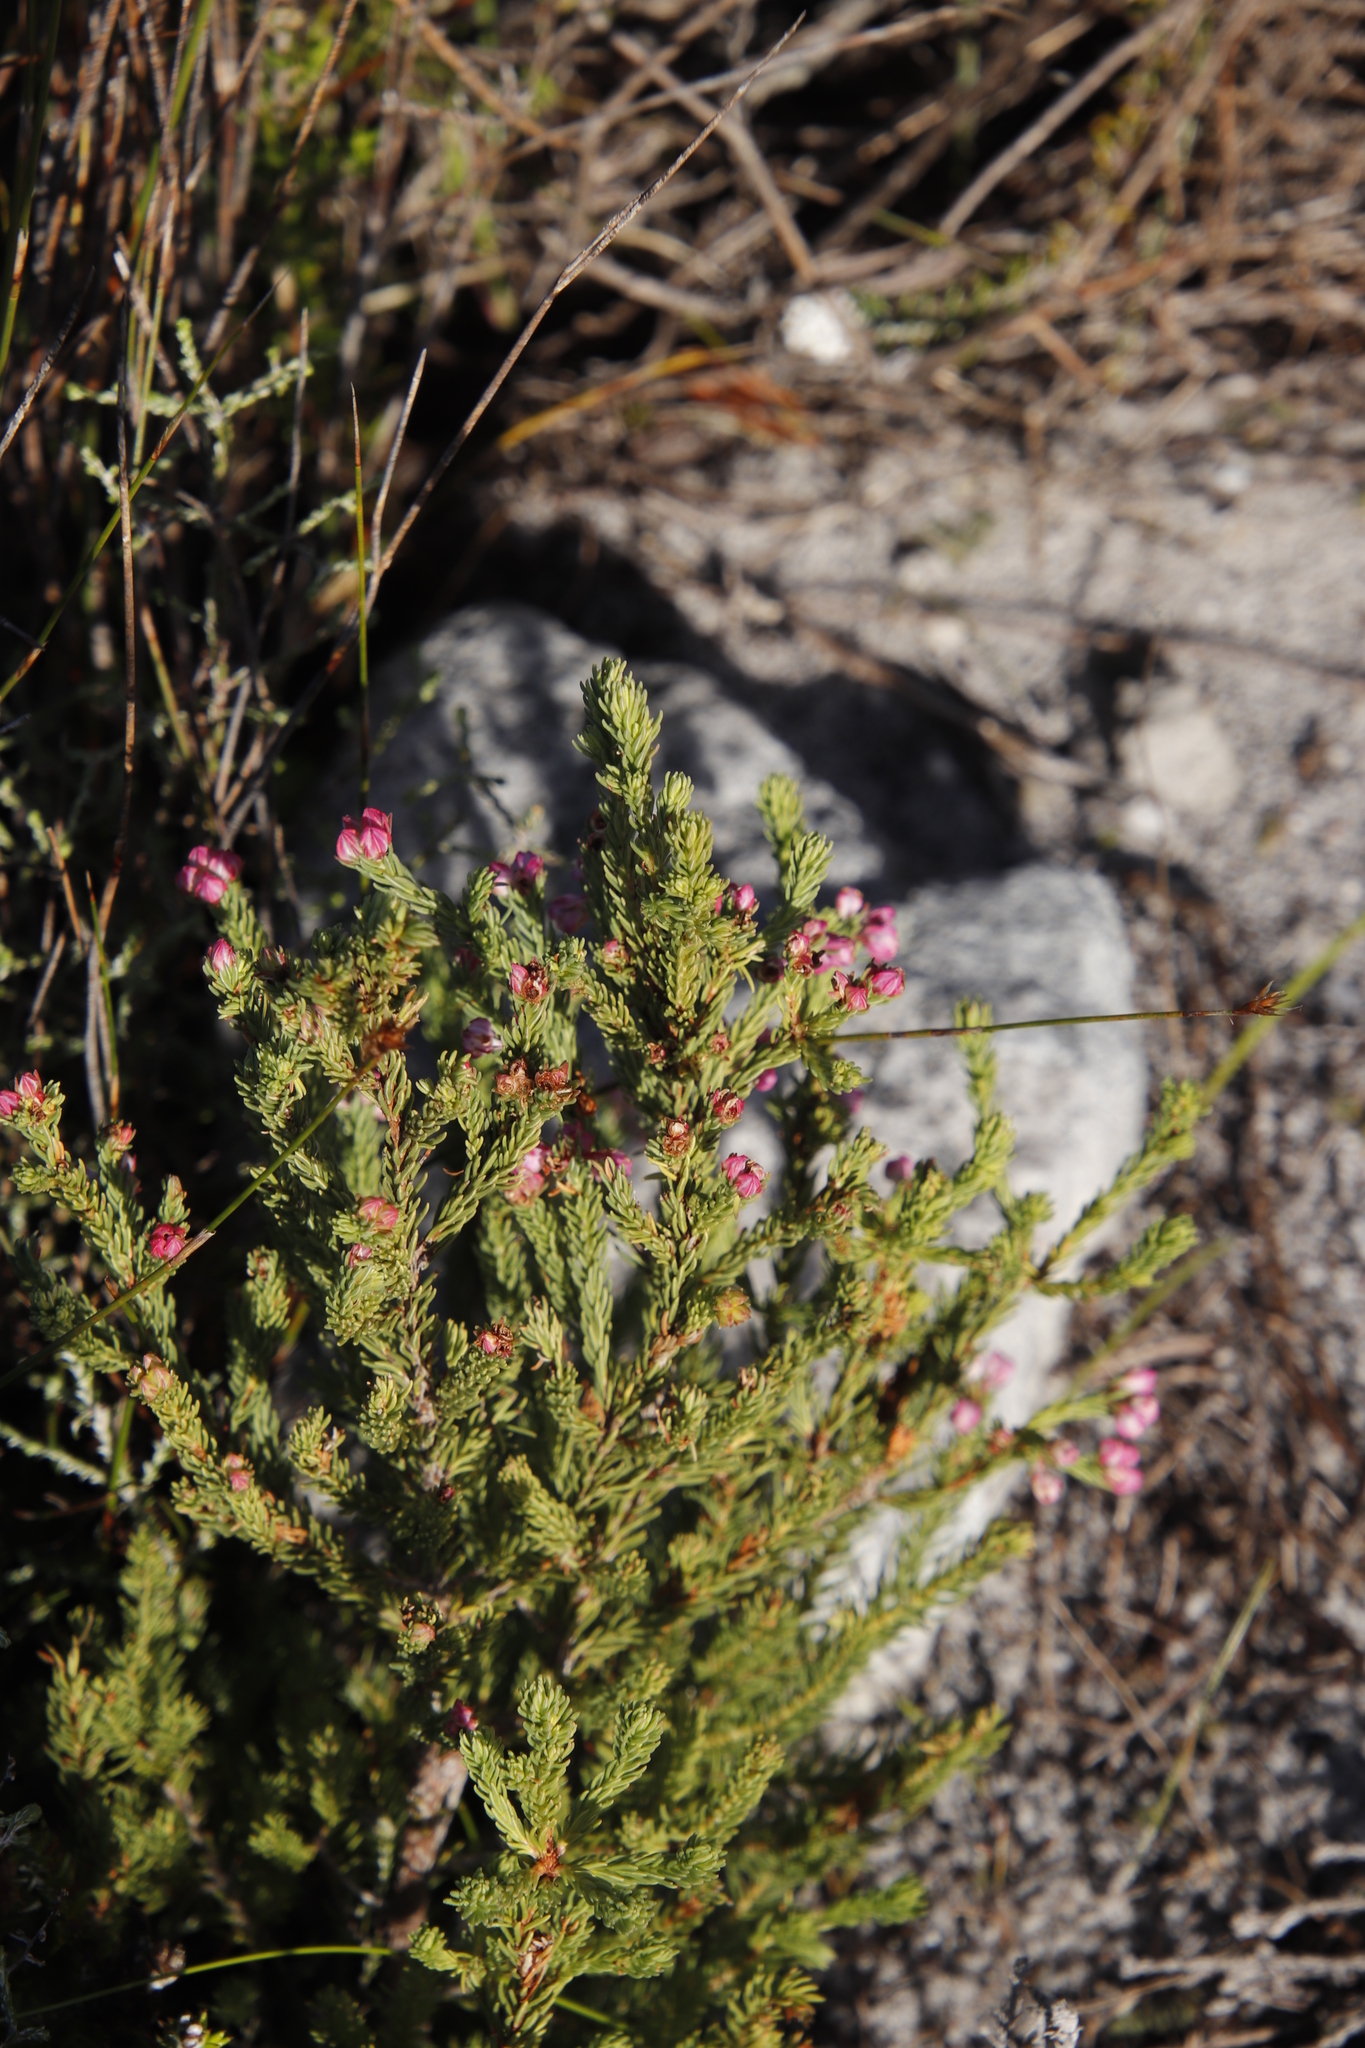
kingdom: Plantae
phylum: Tracheophyta
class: Magnoliopsida
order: Ericales
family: Ericaceae
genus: Erica
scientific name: Erica baccans
